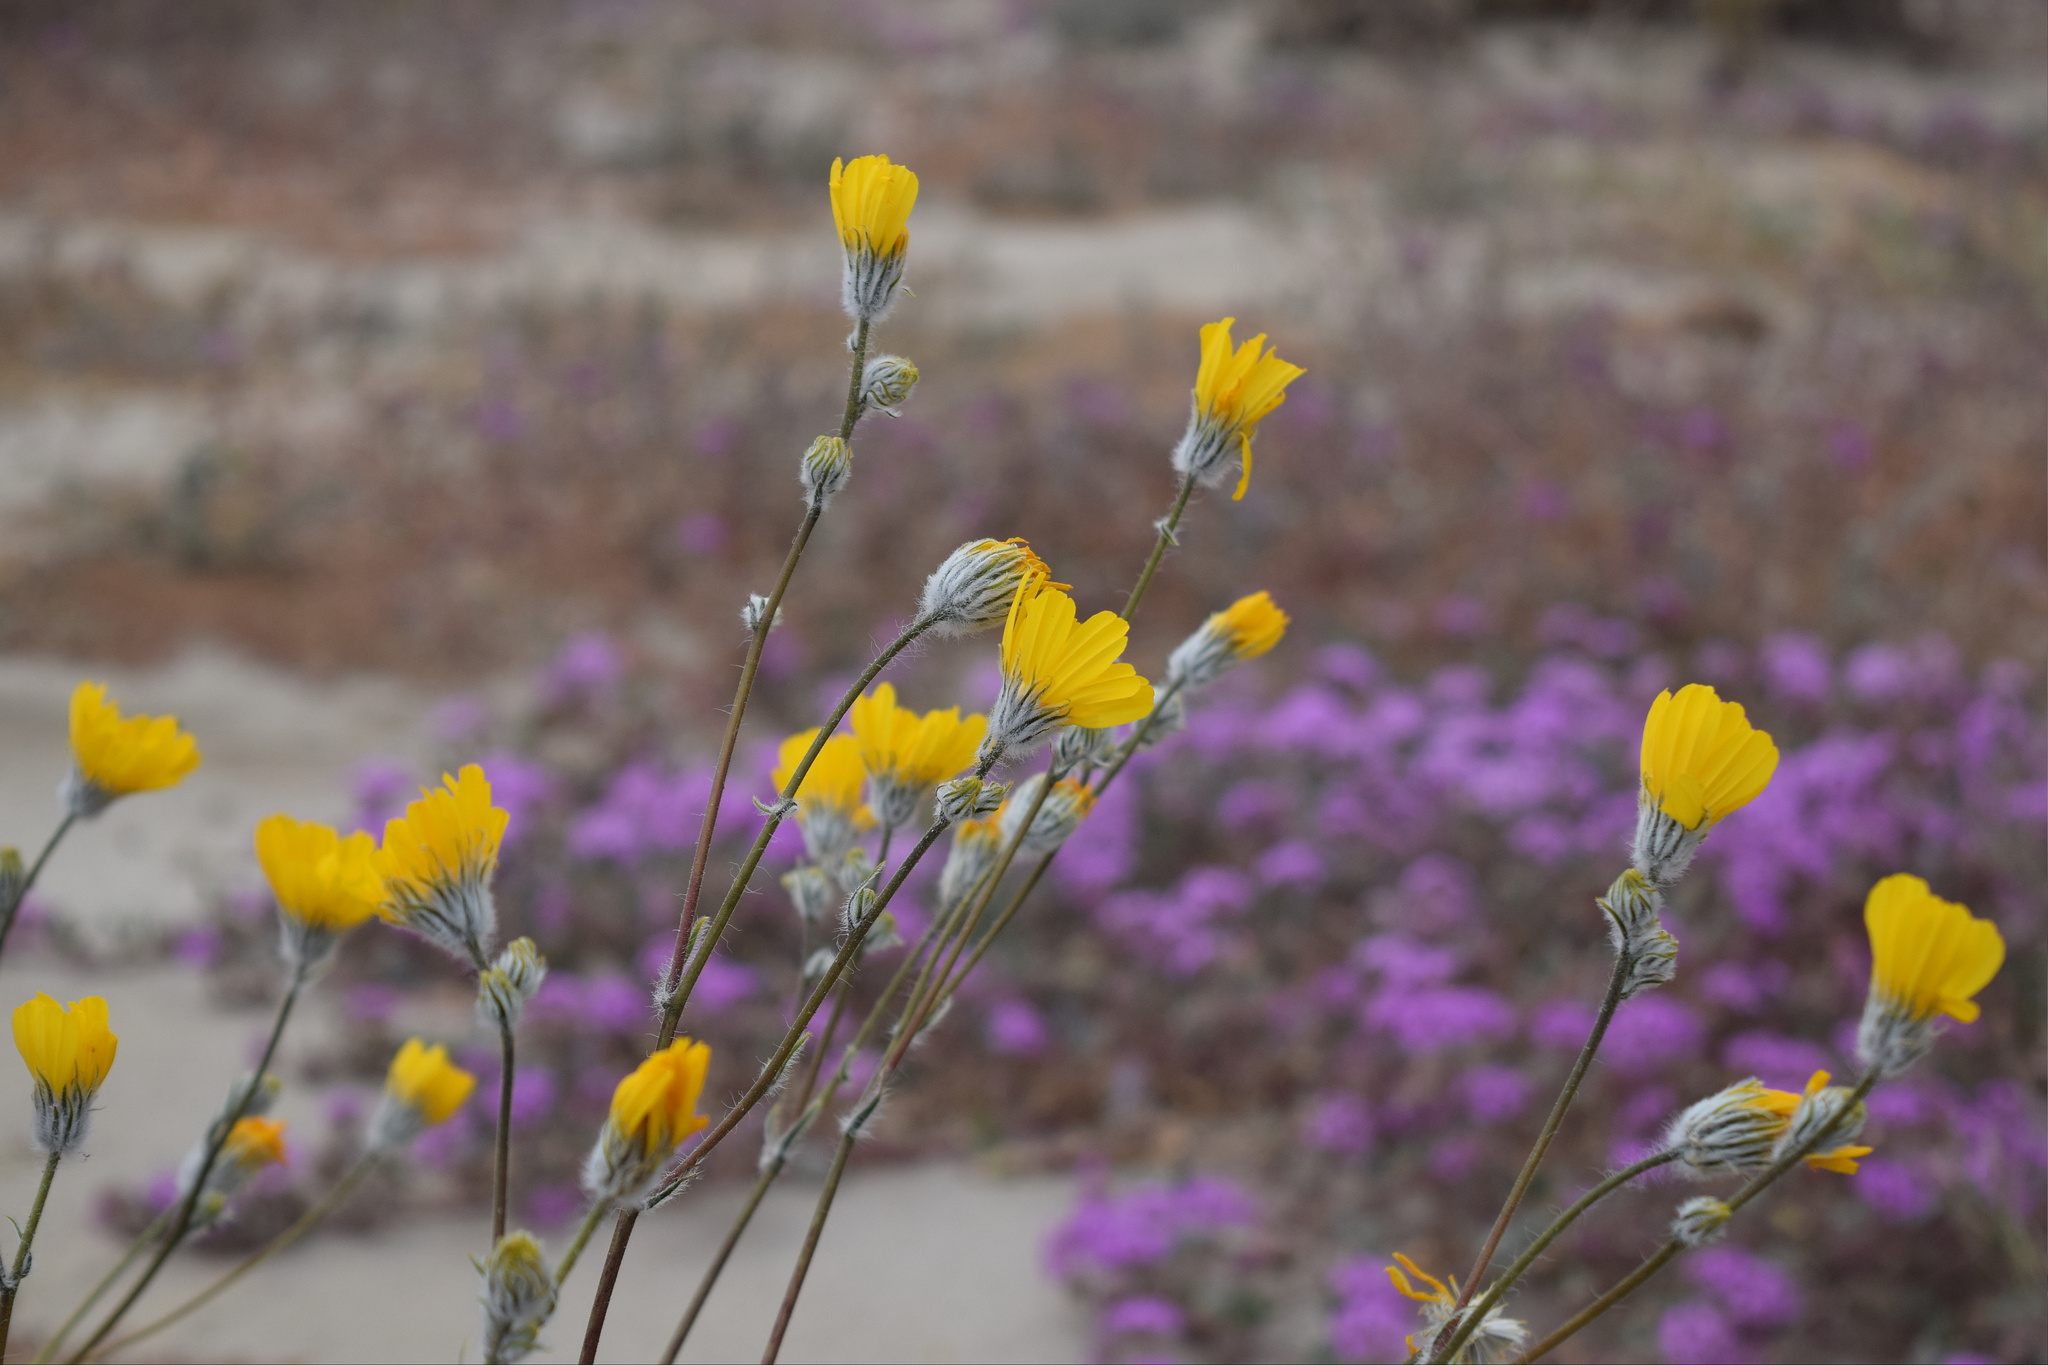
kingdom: Plantae
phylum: Tracheophyta
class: Magnoliopsida
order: Asterales
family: Asteraceae
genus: Geraea
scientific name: Geraea canescens
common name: Desert-gold
